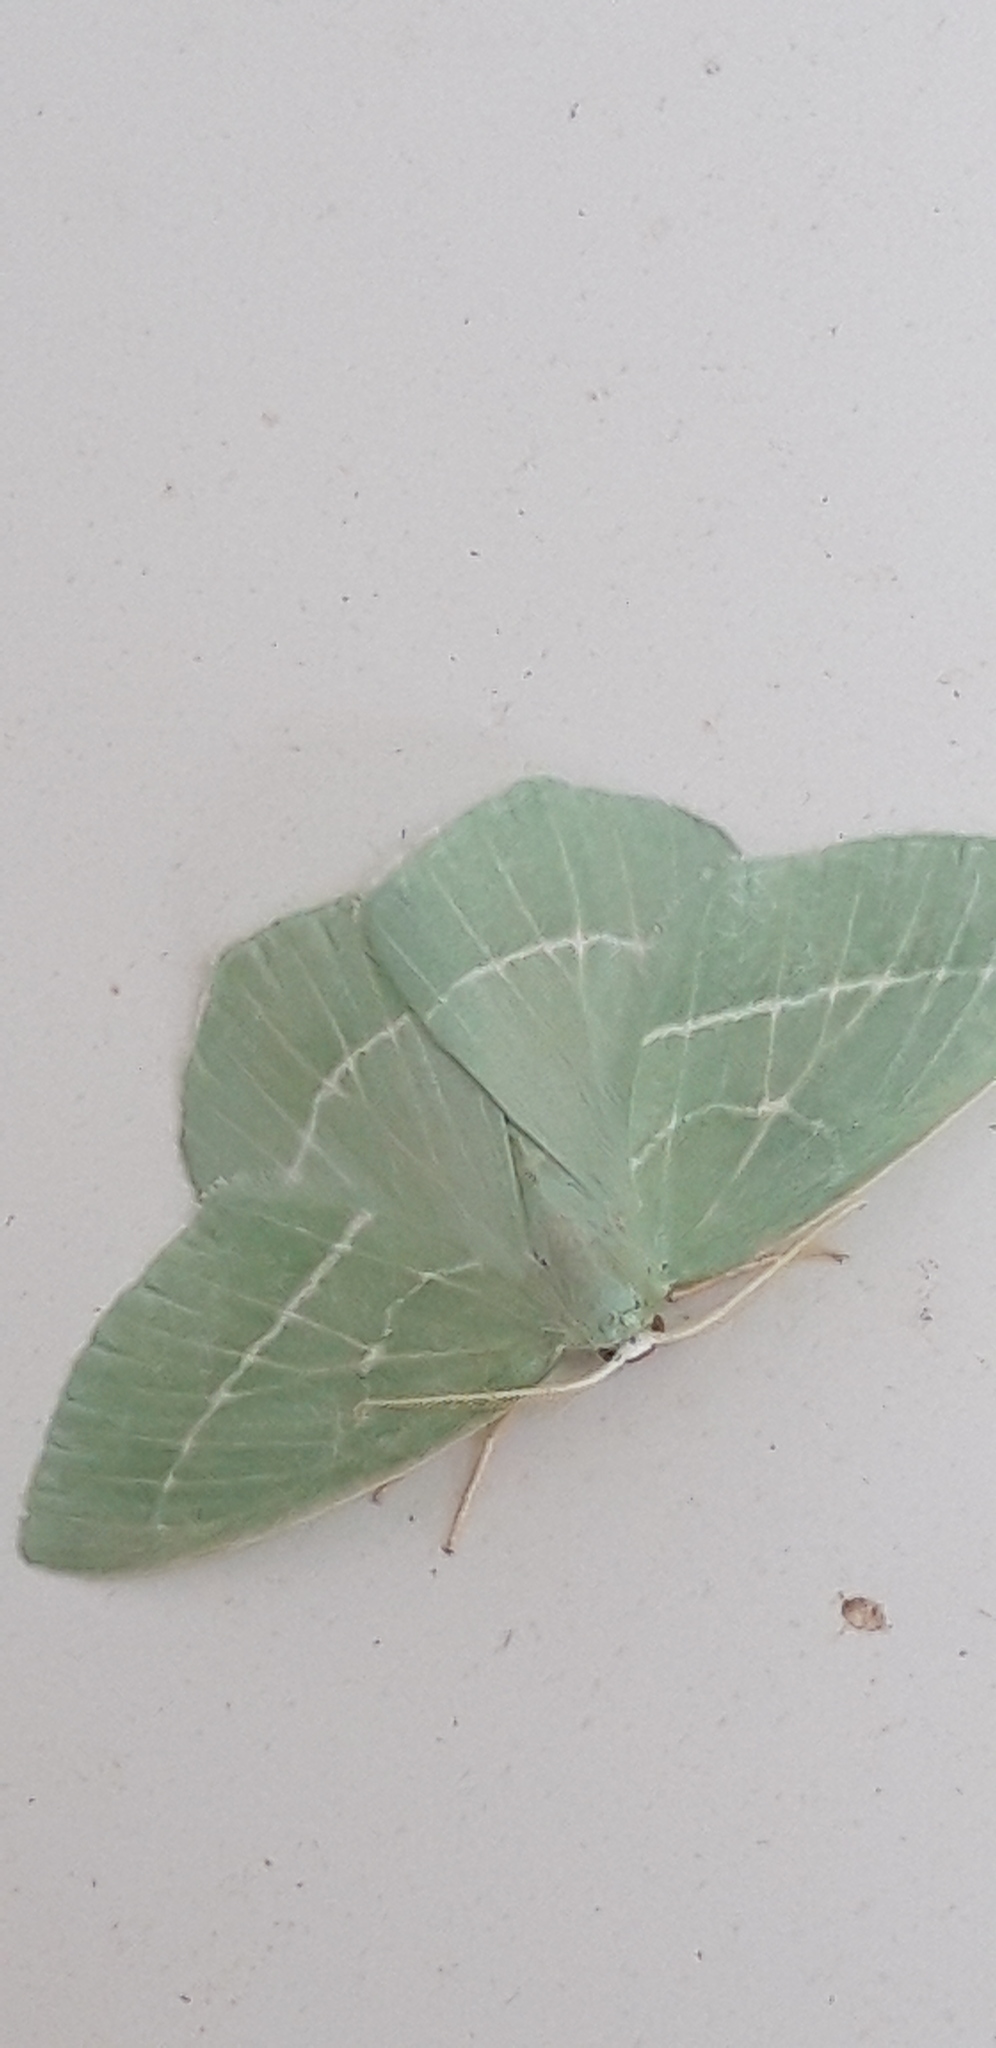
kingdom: Animalia
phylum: Arthropoda
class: Insecta
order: Lepidoptera
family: Geometridae
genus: Hemistola
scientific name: Hemistola chrysoprasaria
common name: Small emerald
